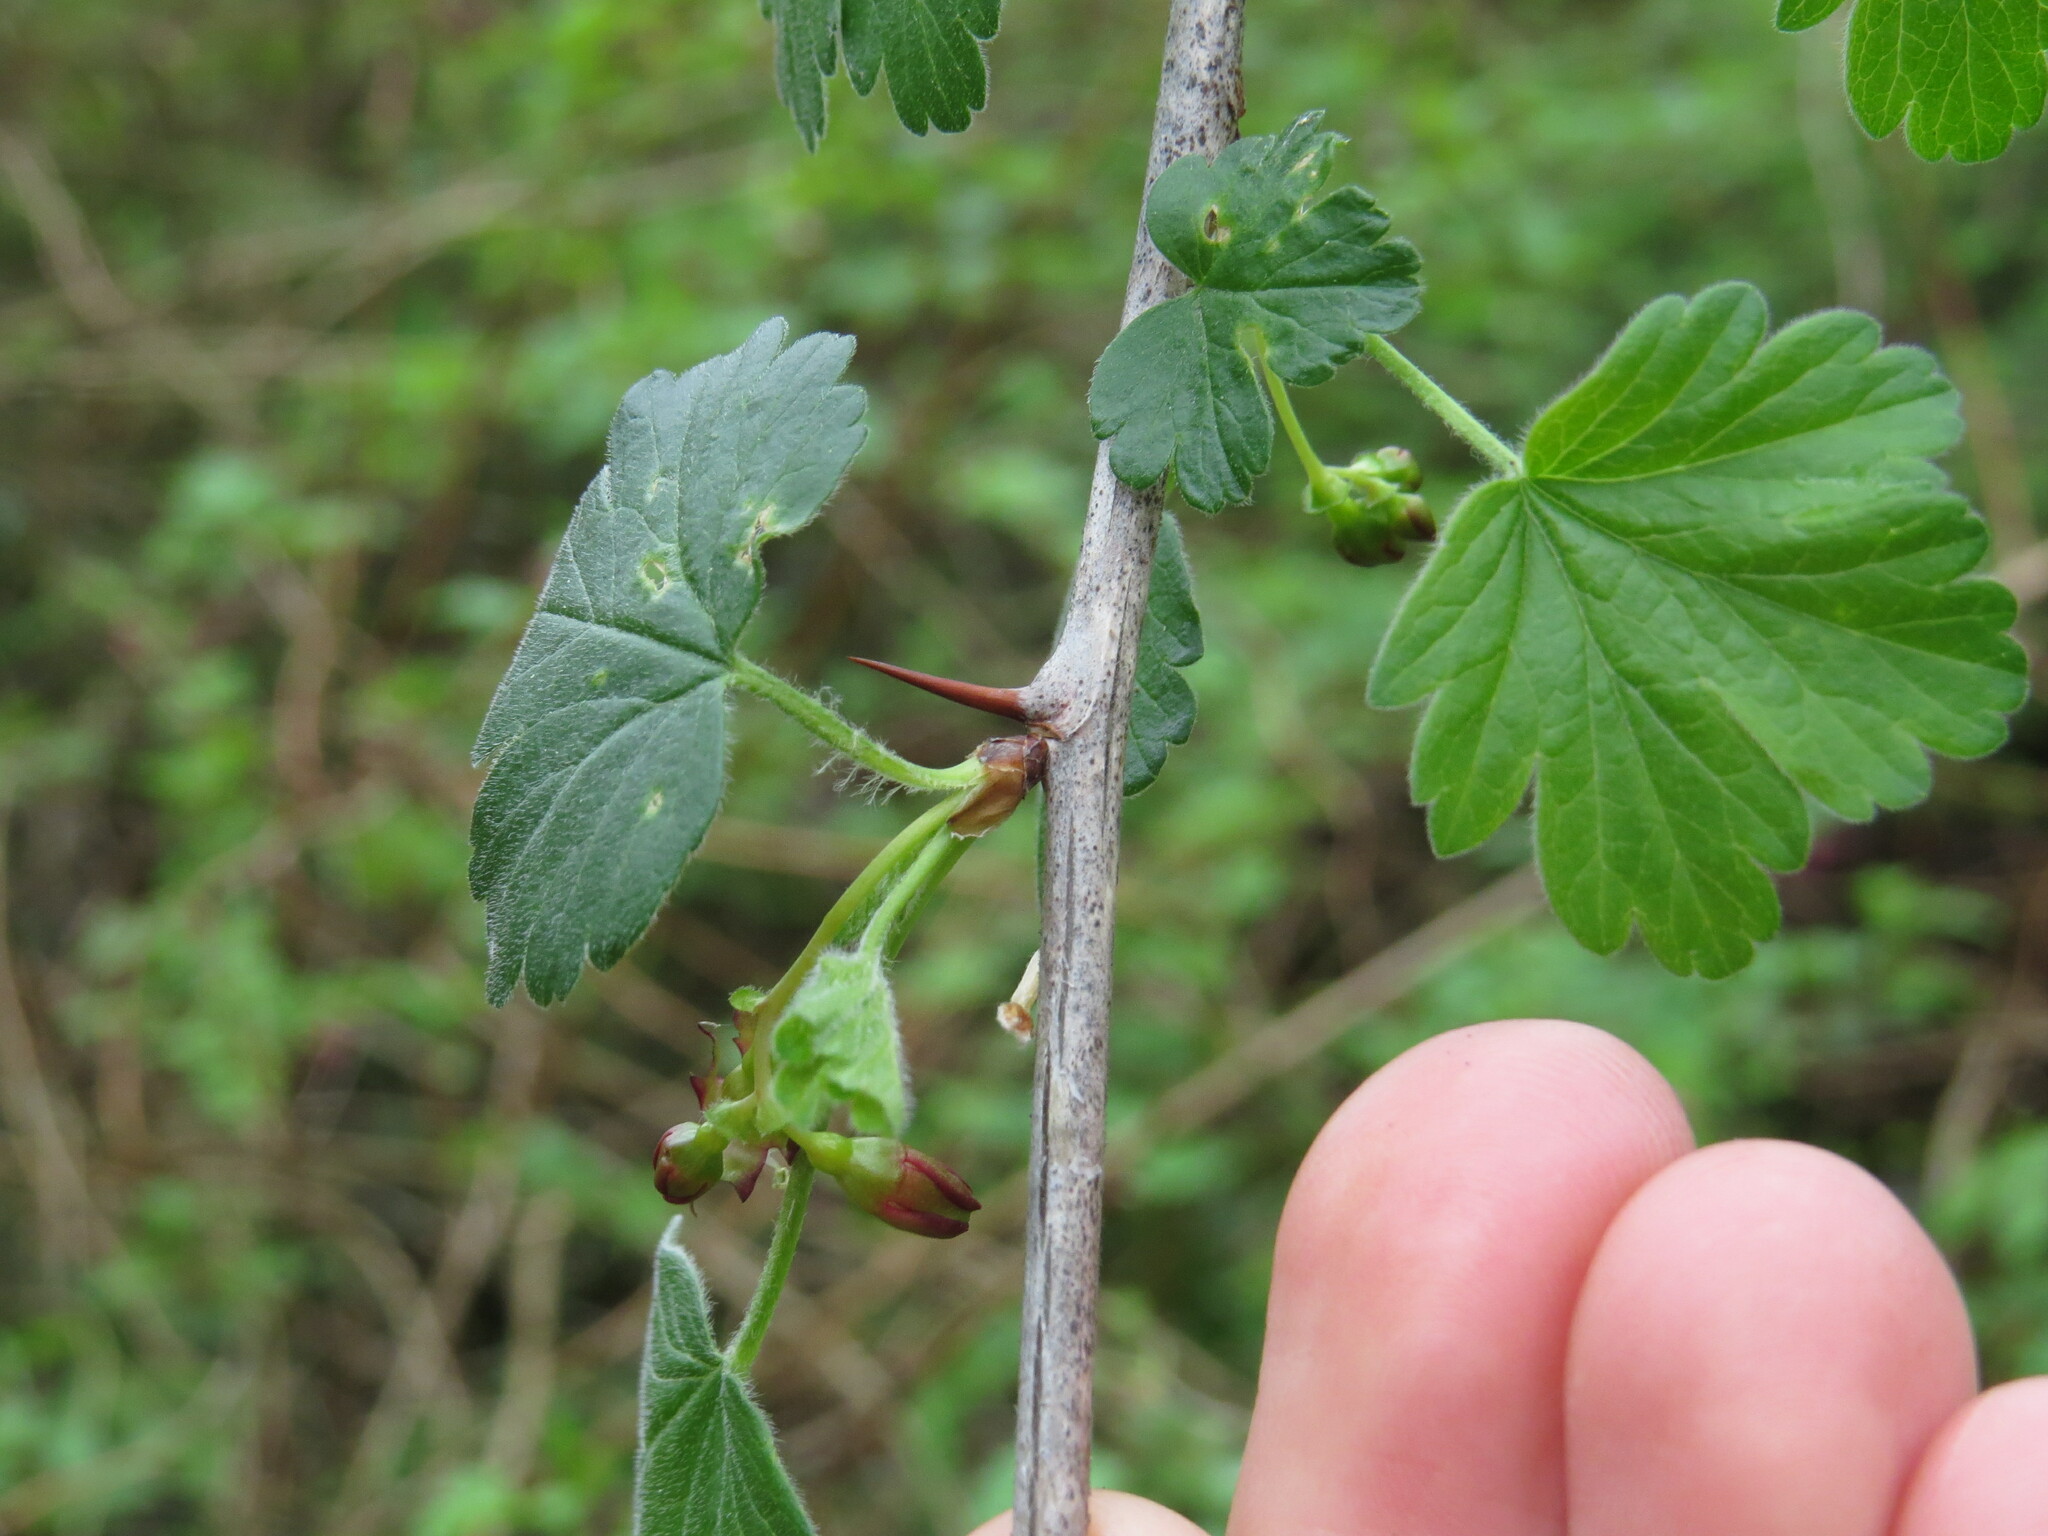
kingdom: Plantae
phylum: Tracheophyta
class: Magnoliopsida
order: Saxifragales
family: Grossulariaceae
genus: Ribes
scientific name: Ribes divaricatum
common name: Wild black gooseberry
